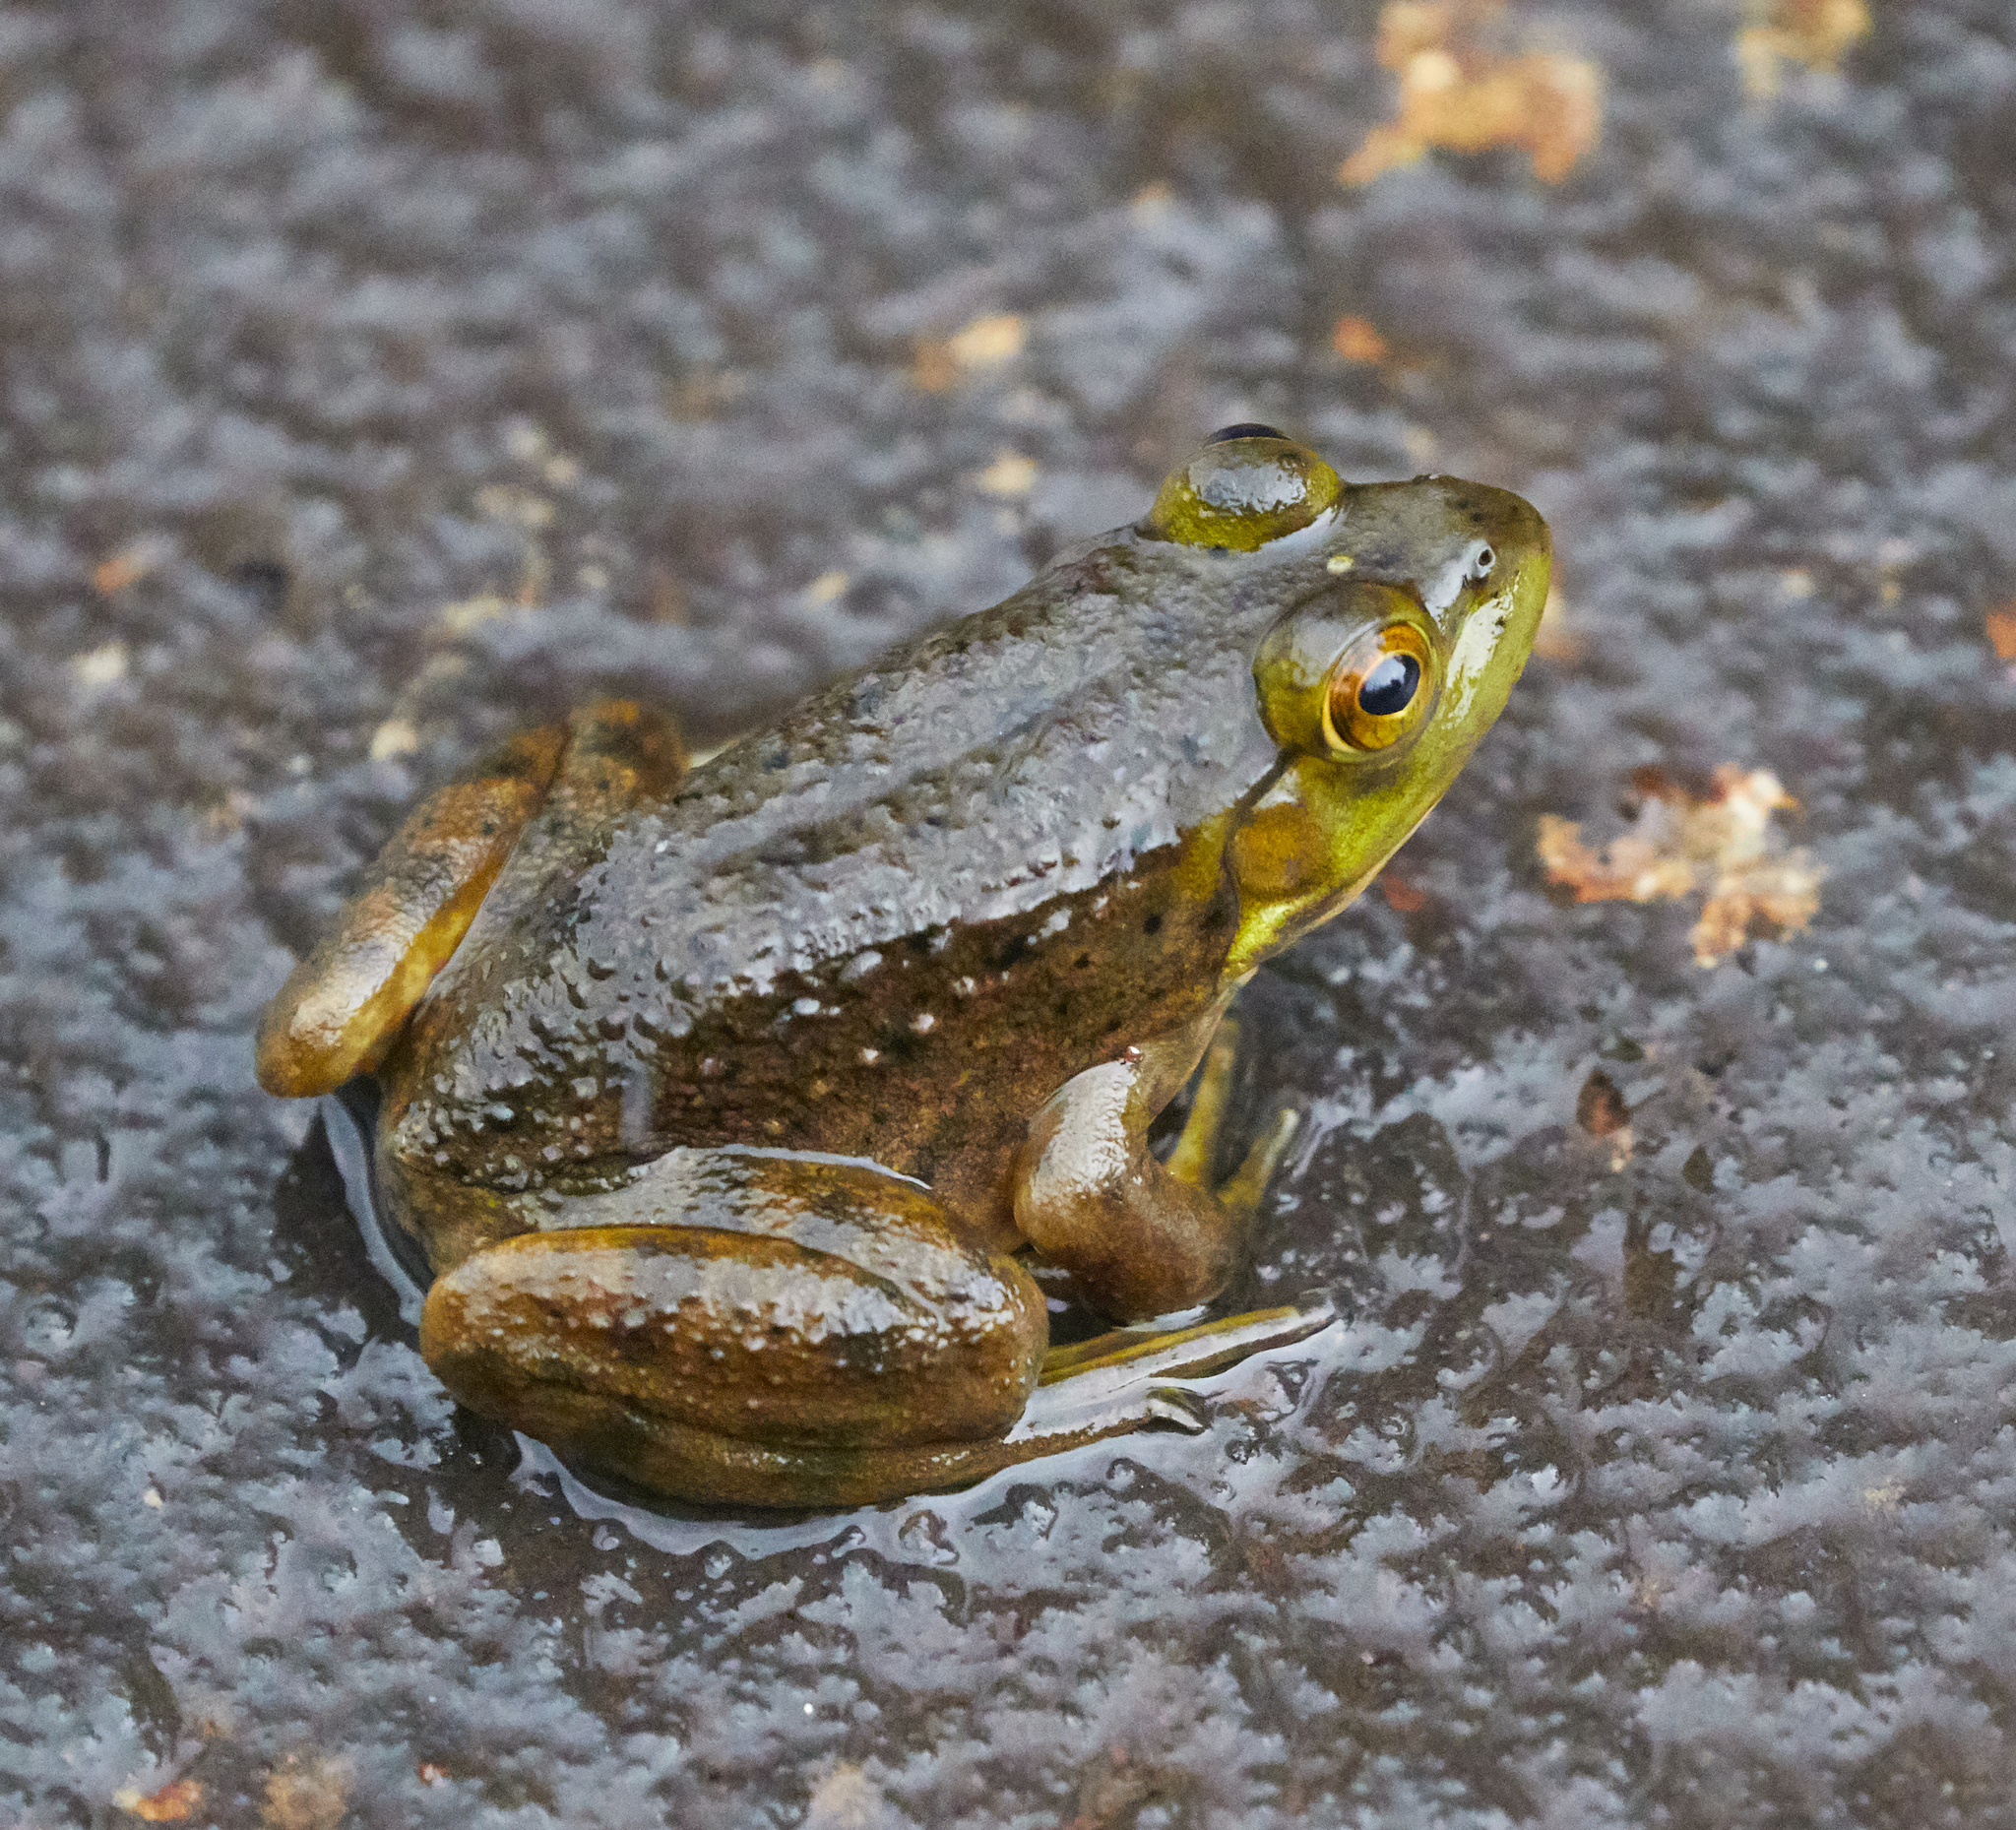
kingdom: Animalia
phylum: Chordata
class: Amphibia
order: Anura
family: Ranidae
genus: Lithobates
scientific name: Lithobates clamitans
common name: Green frog
